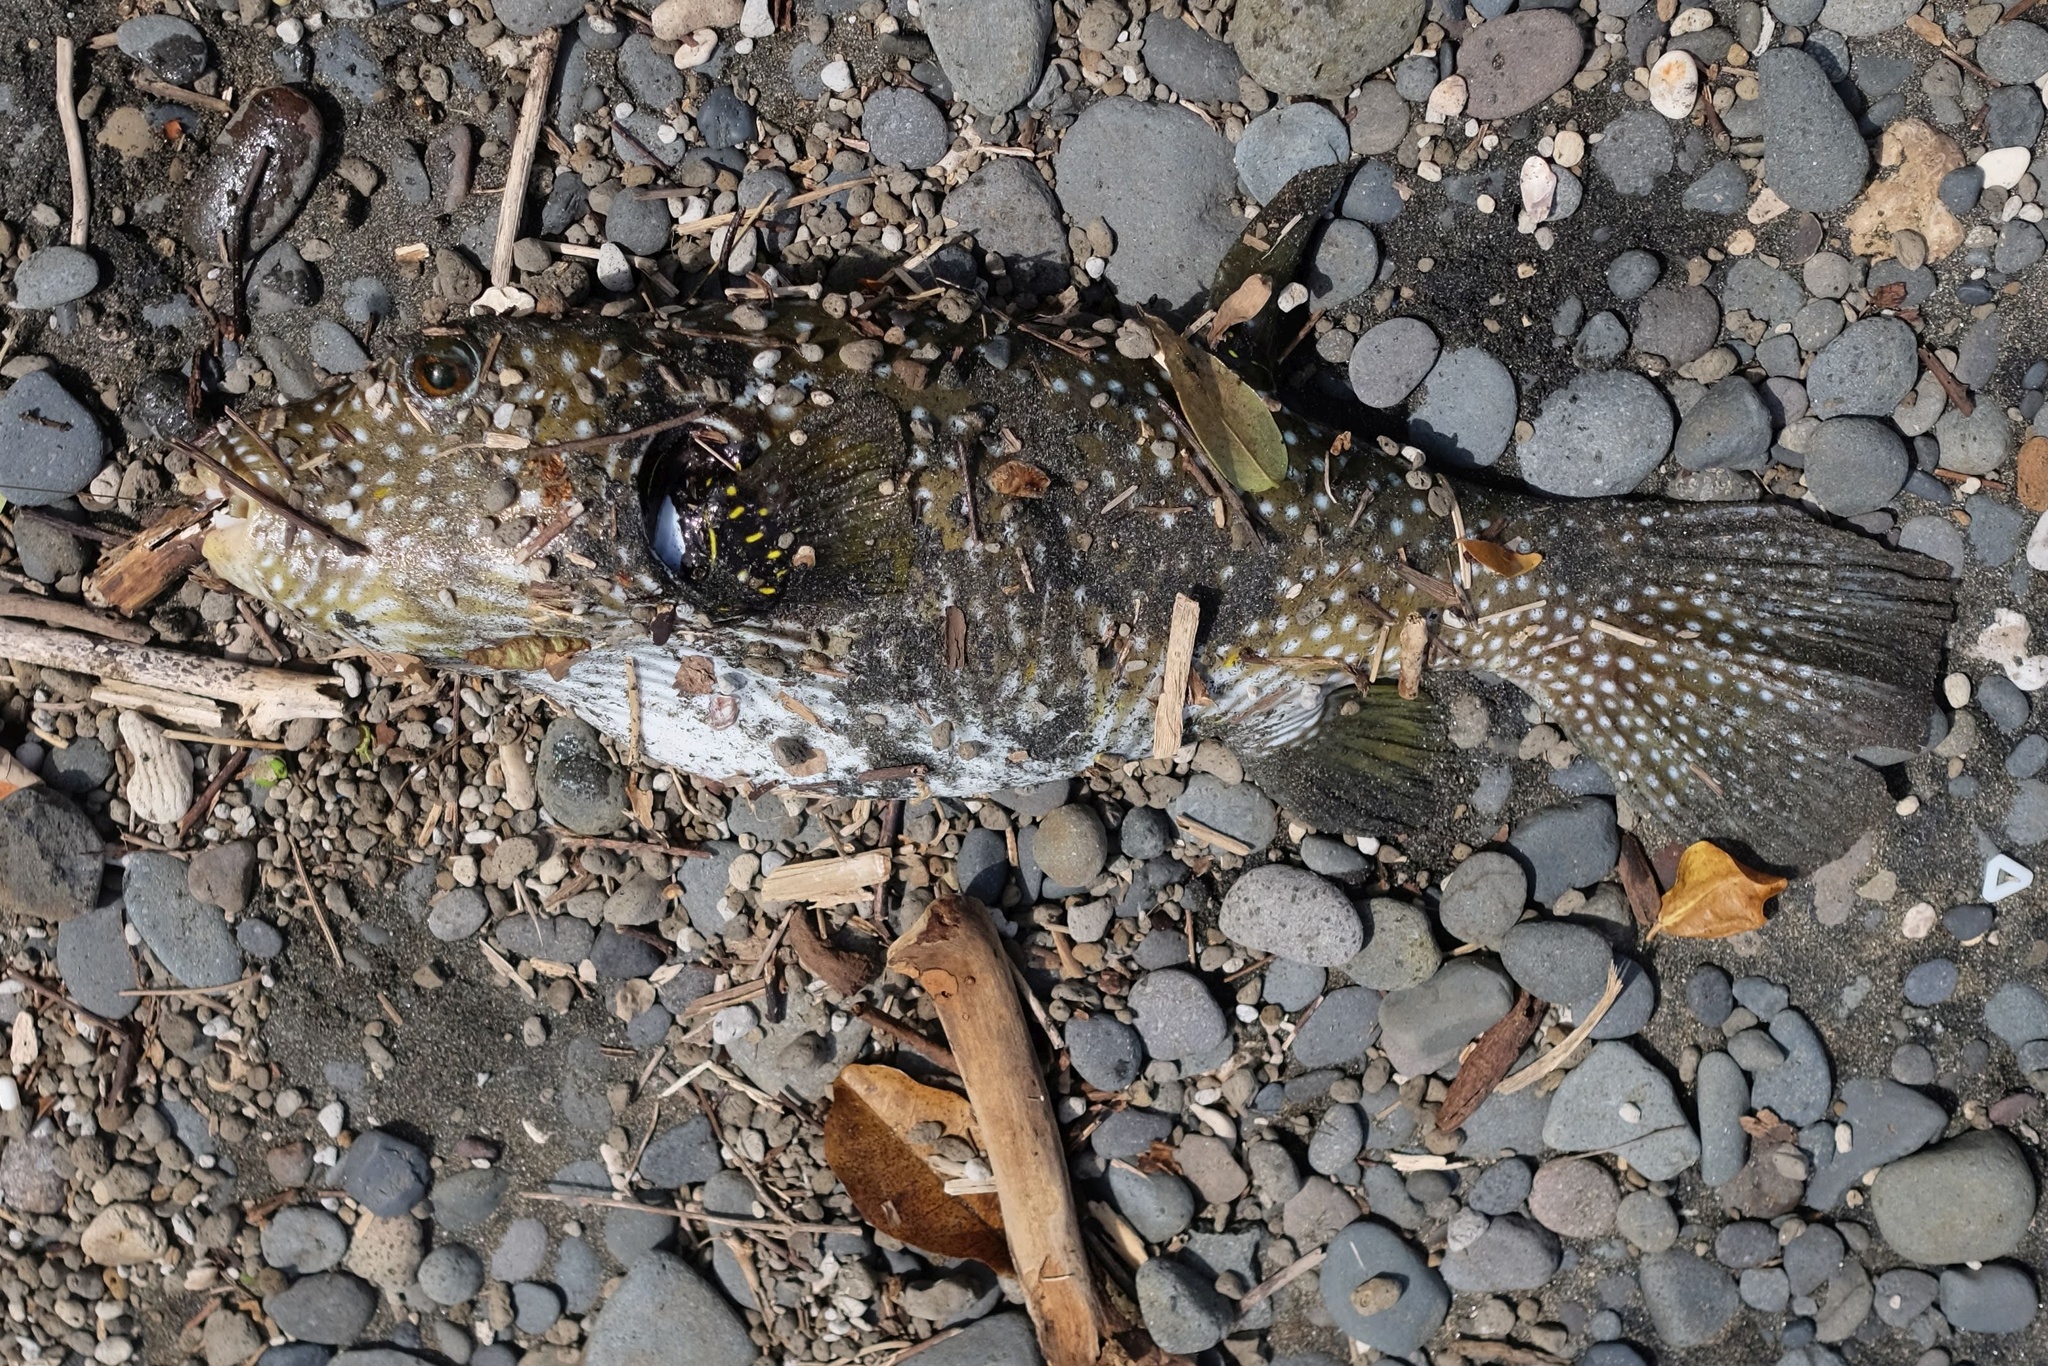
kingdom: Animalia
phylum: Chordata
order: Tetraodontiformes
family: Tetraodontidae
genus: Arothron
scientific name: Arothron hispidus
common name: Stripebelly puffer
